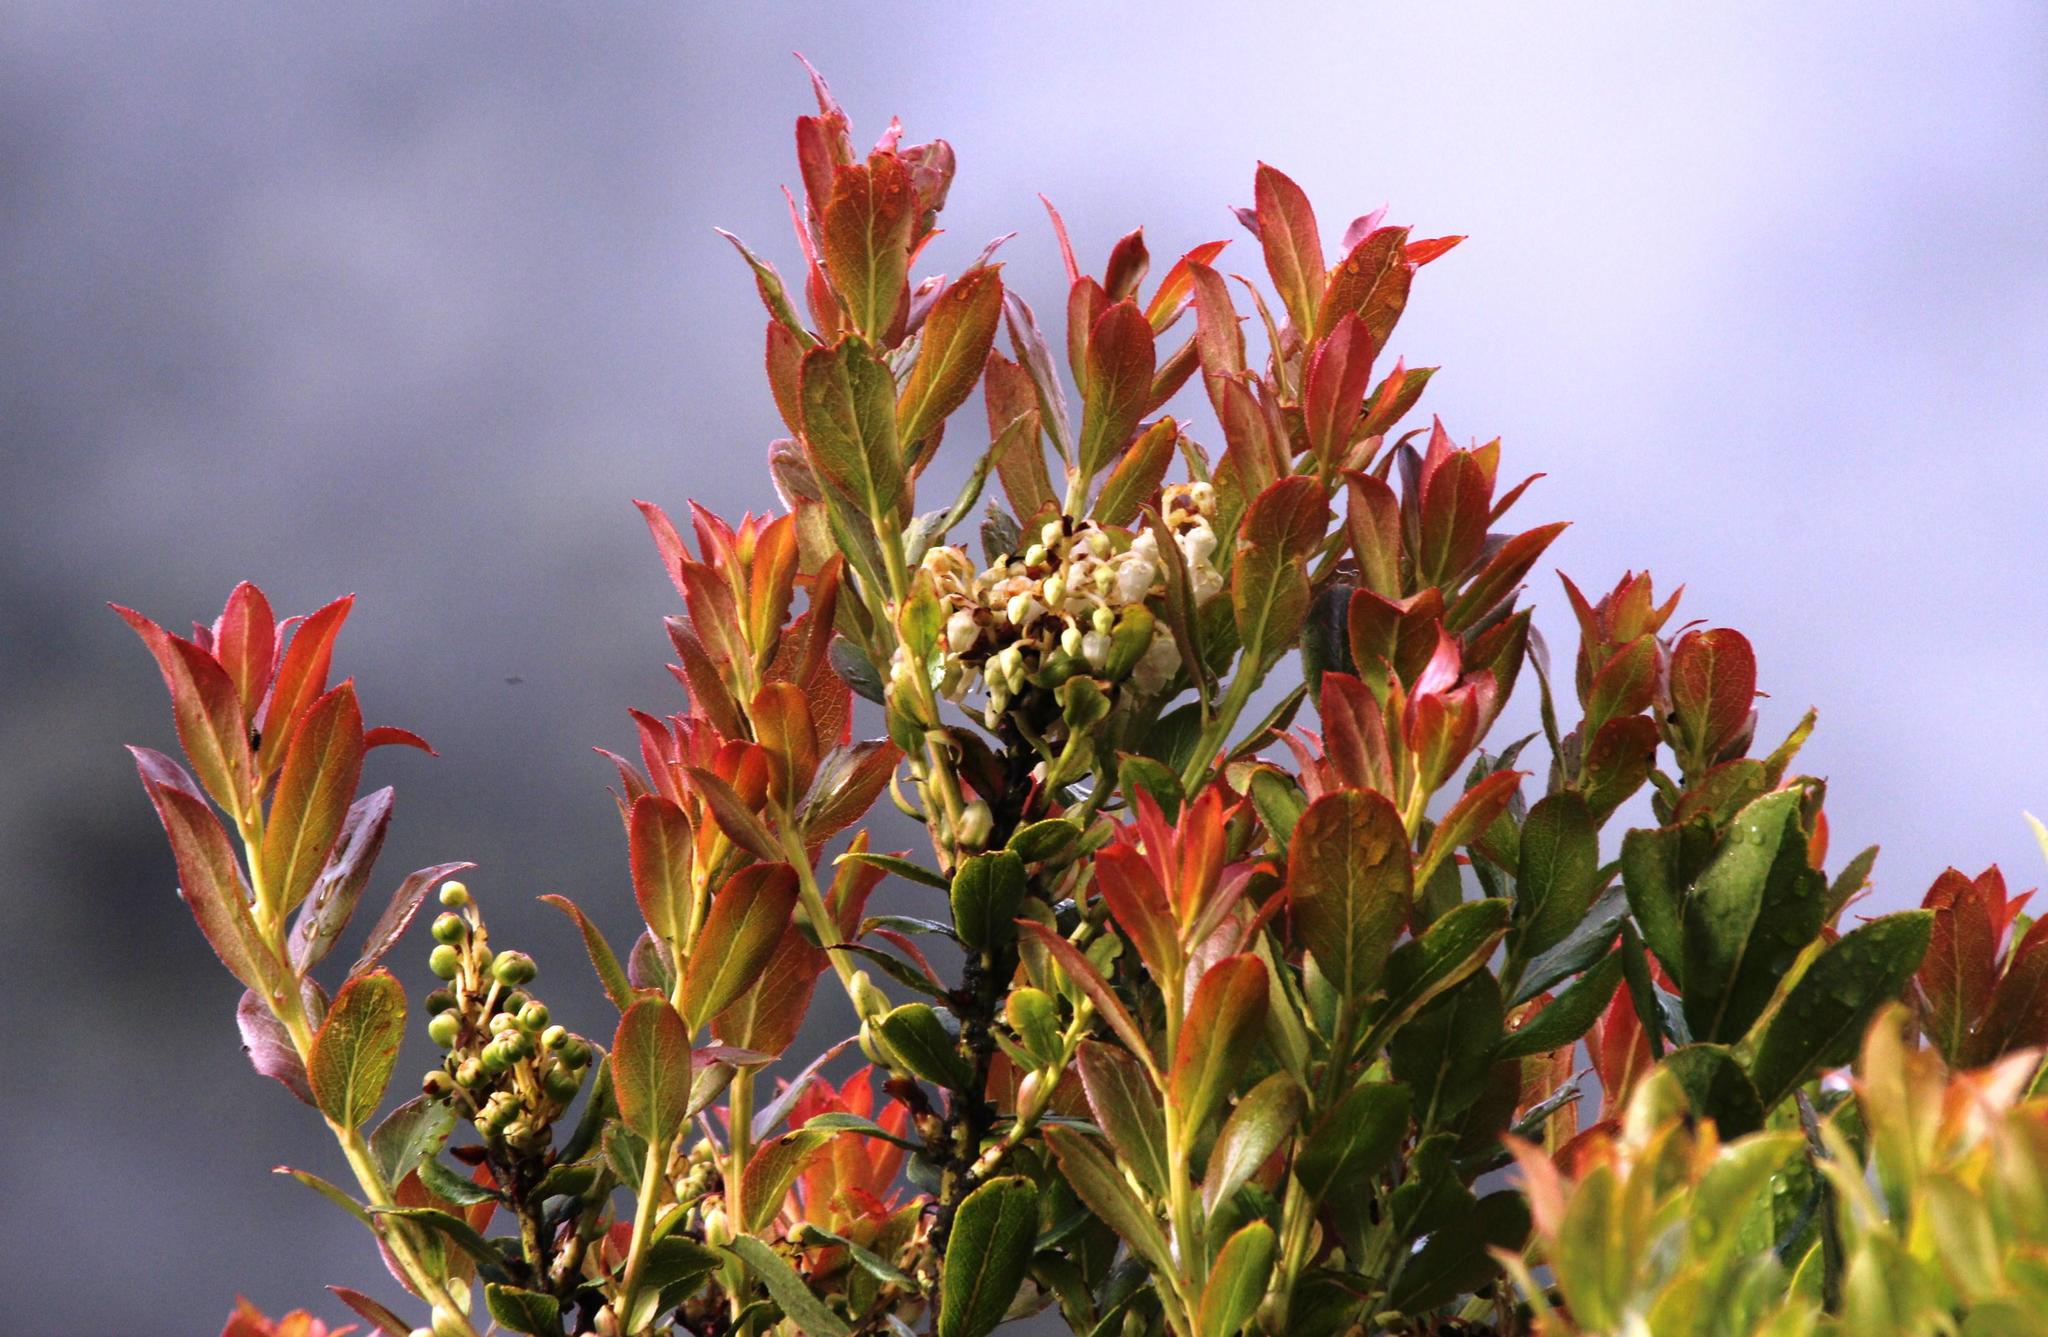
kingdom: Plantae
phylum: Tracheophyta
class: Magnoliopsida
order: Ericales
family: Ericaceae
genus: Gaultheria
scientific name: Gaultheria reticulata
